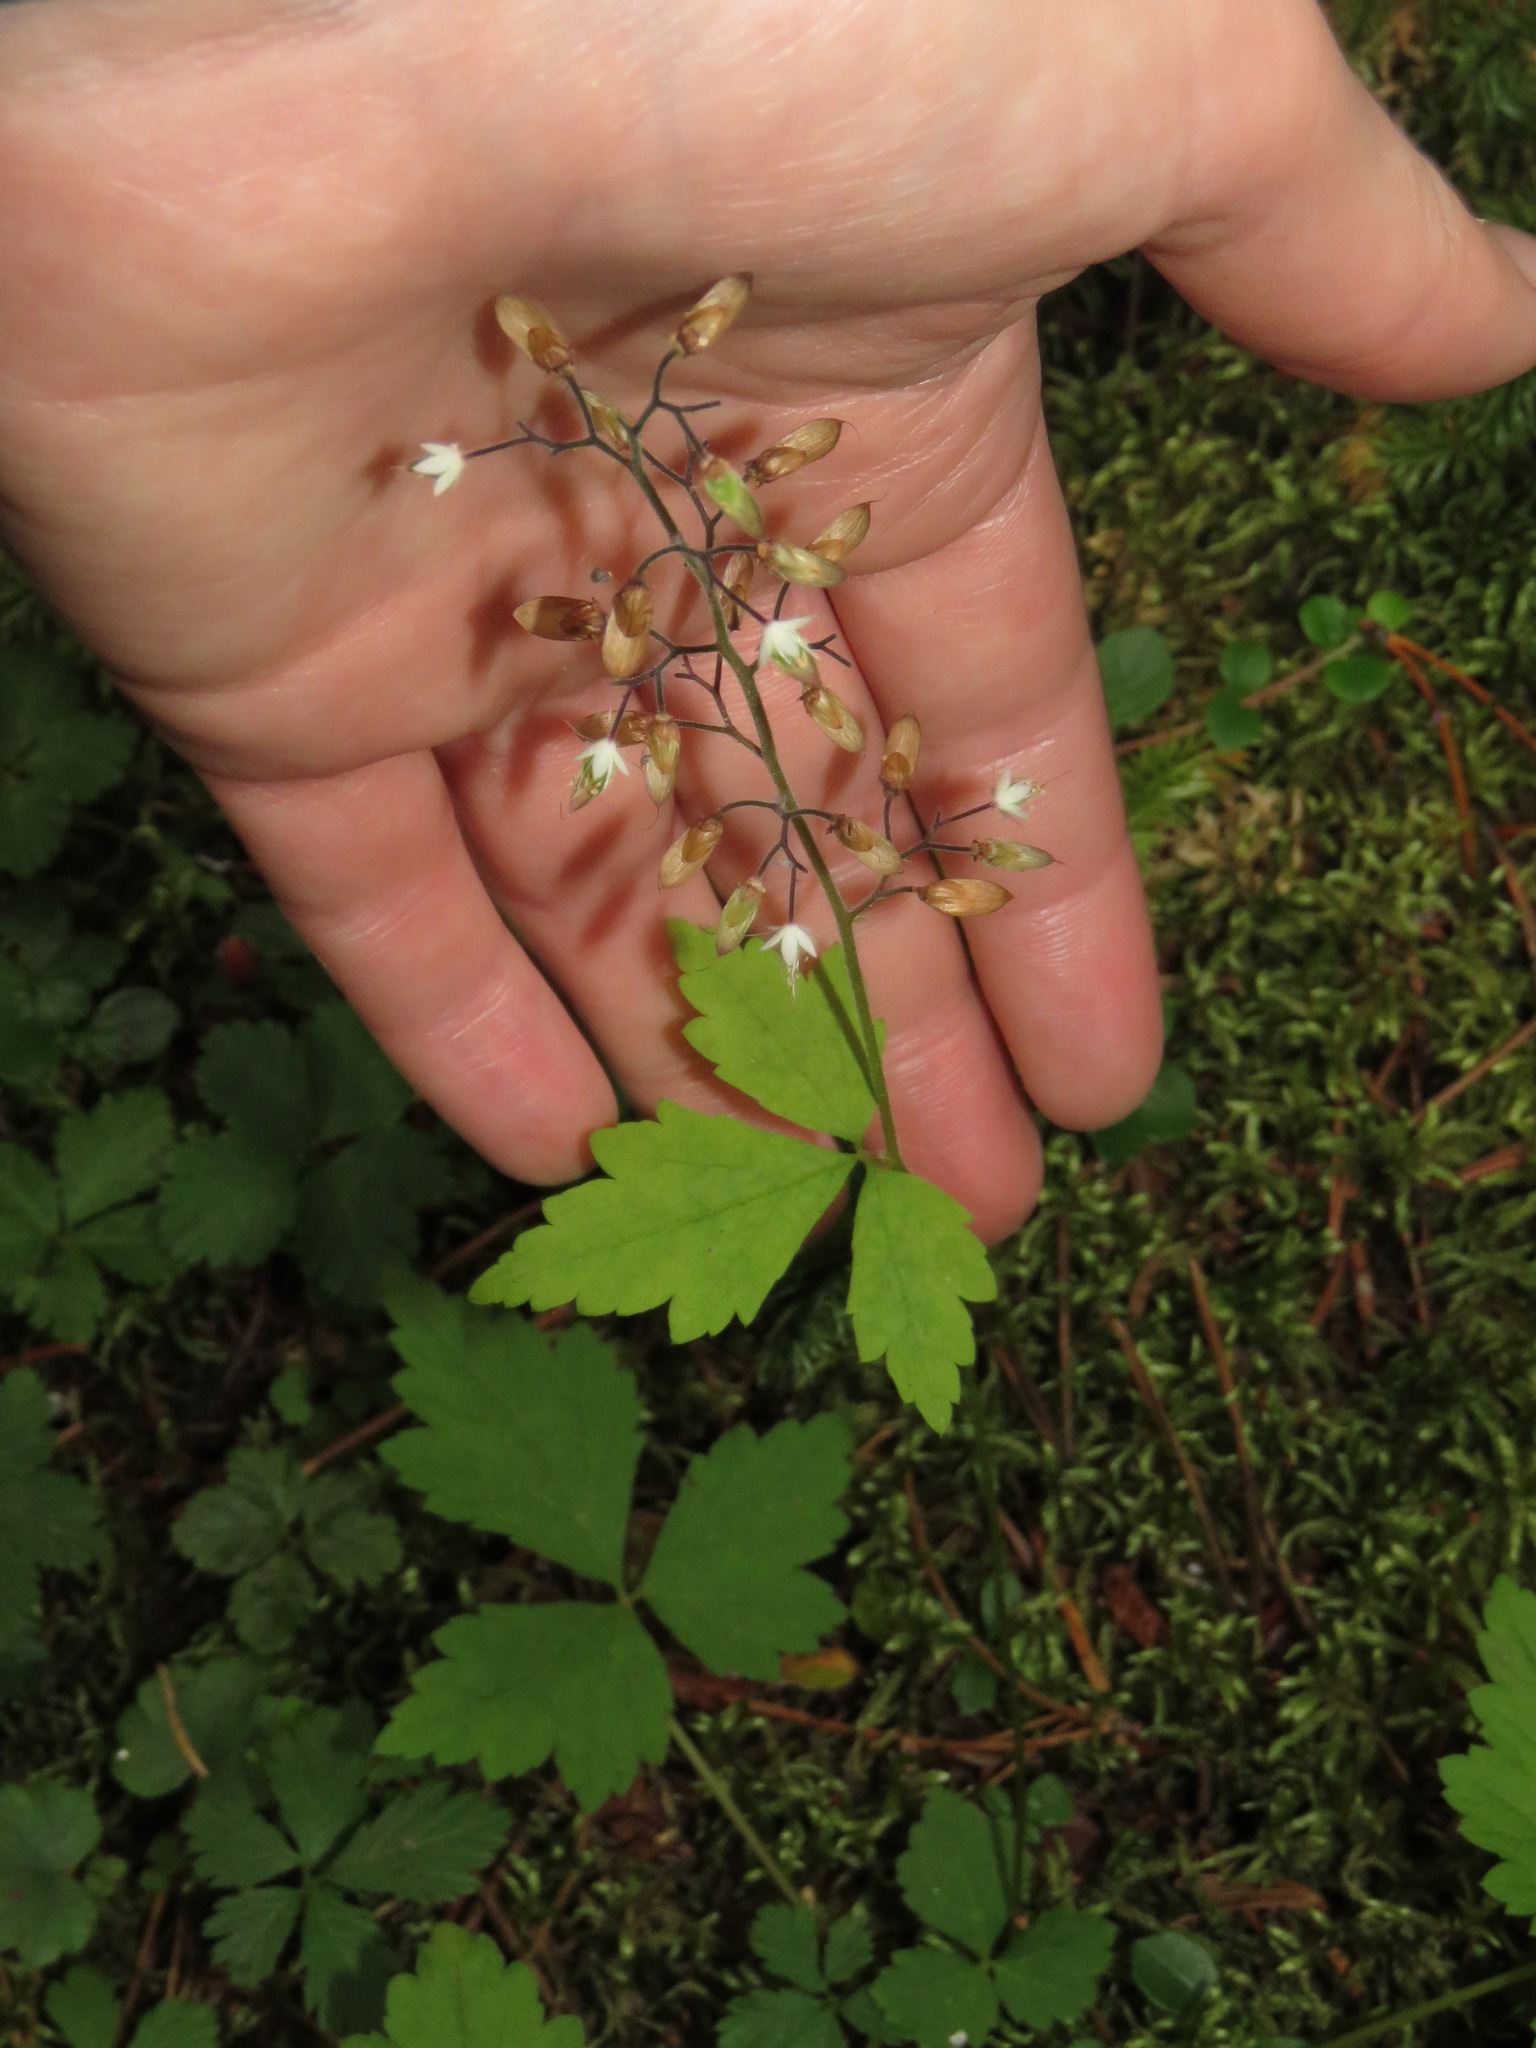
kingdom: Plantae
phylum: Tracheophyta
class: Magnoliopsida
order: Saxifragales
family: Saxifragaceae
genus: Tiarella
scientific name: Tiarella trifoliata
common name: Sugar-scoop
